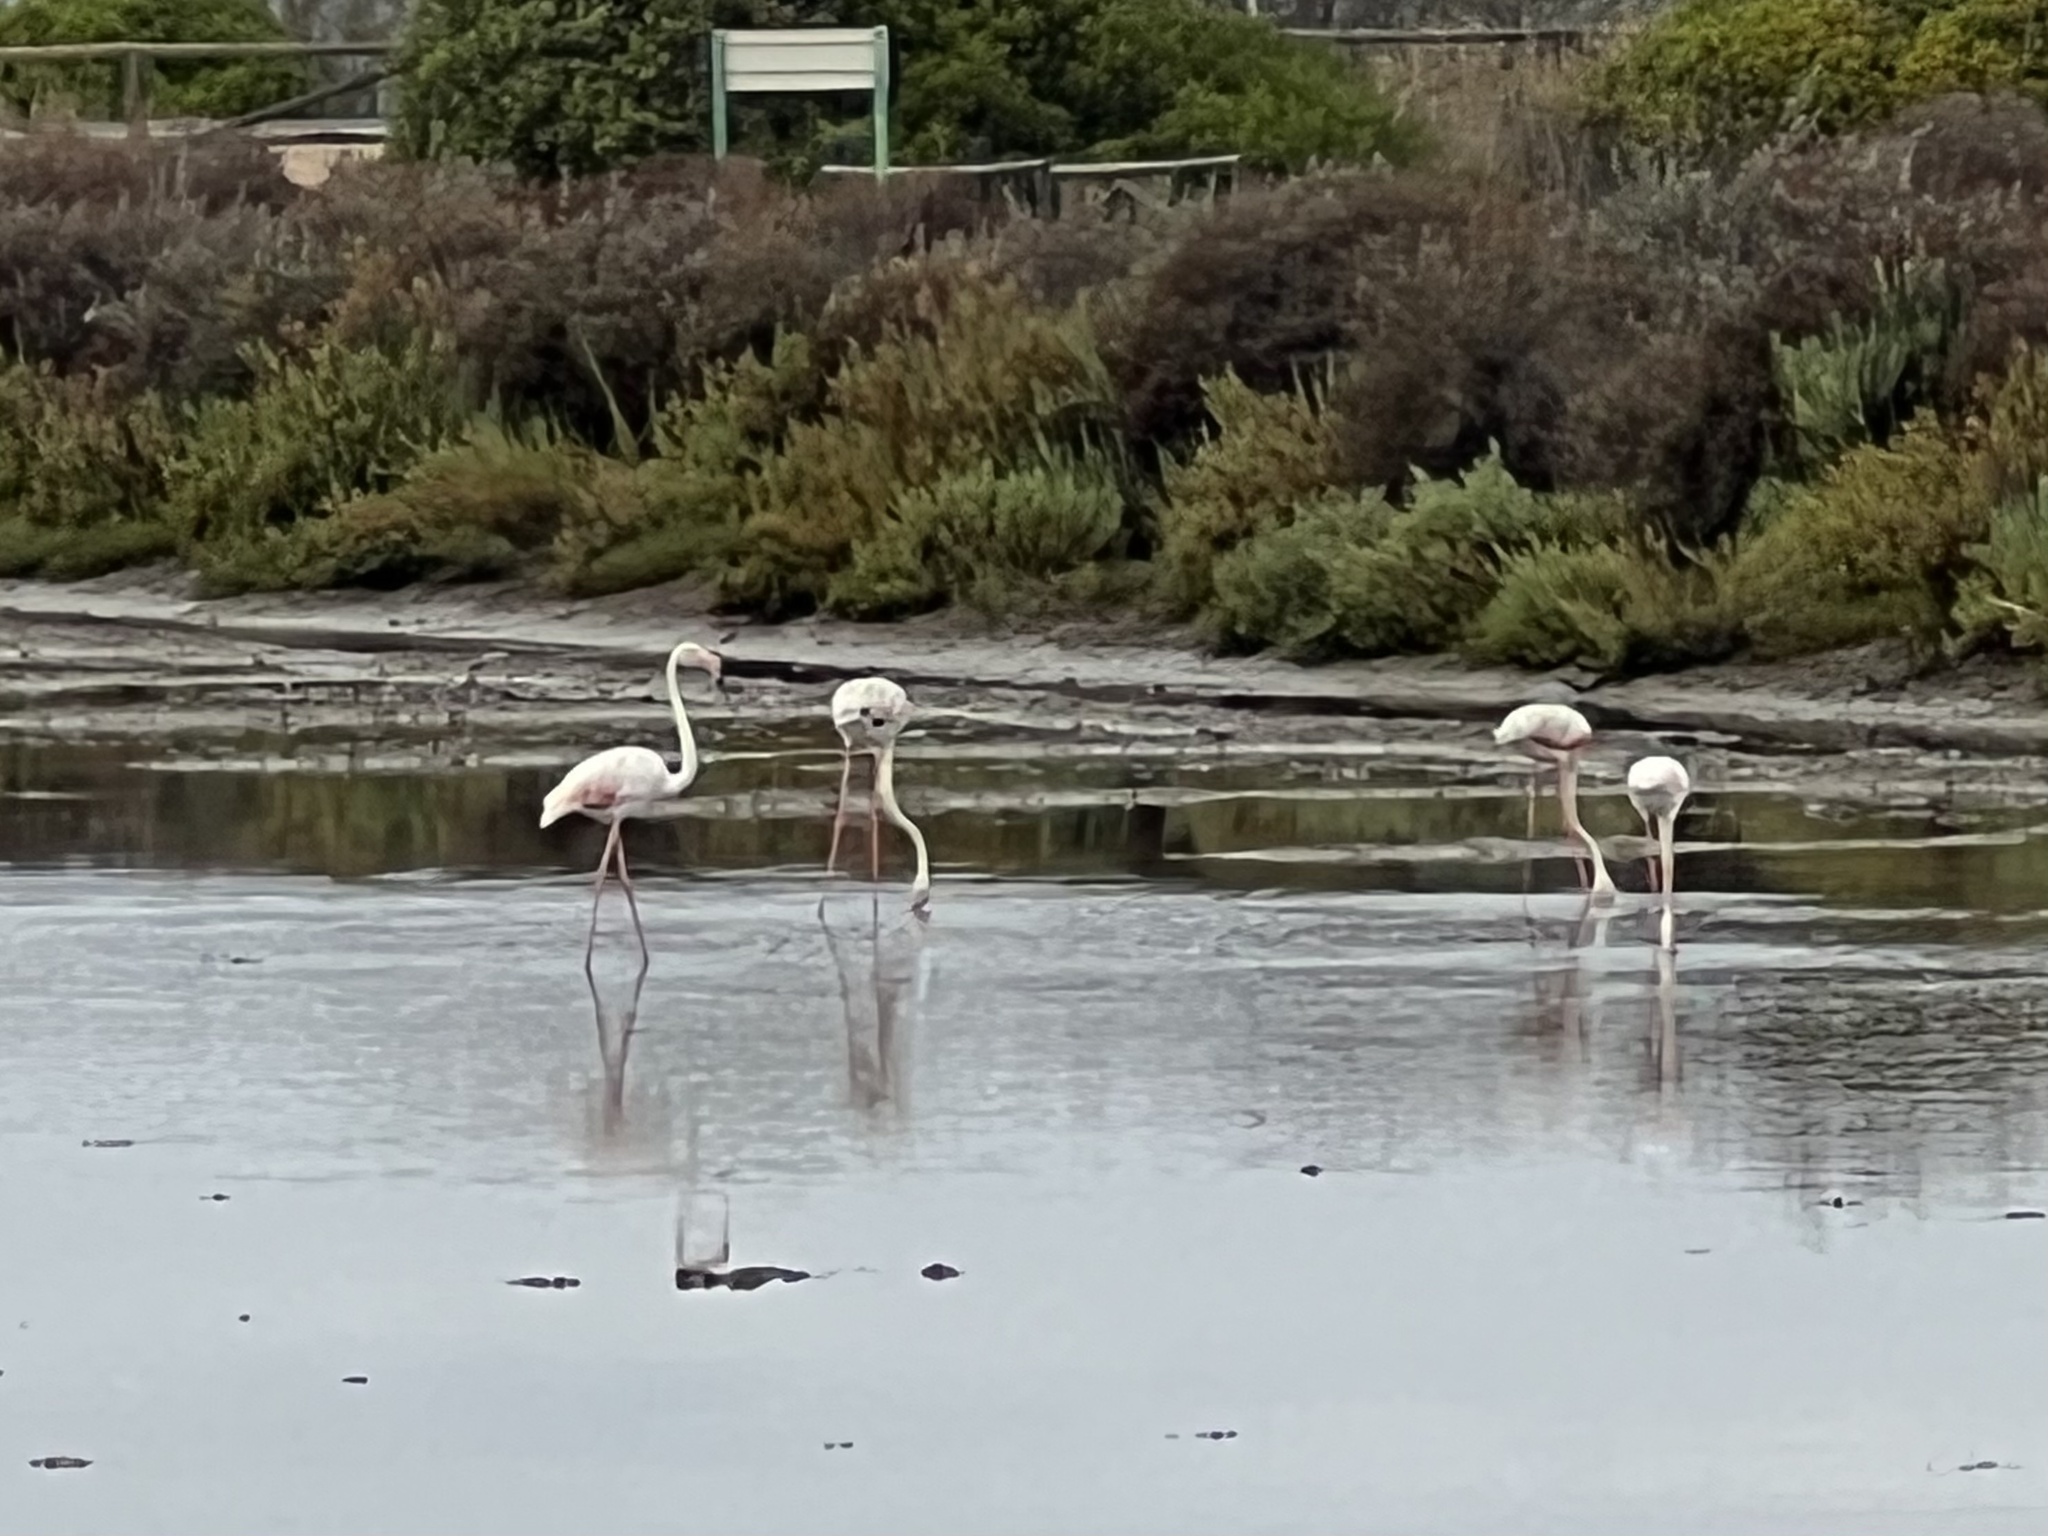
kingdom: Animalia
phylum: Chordata
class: Aves
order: Phoenicopteriformes
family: Phoenicopteridae
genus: Phoenicopterus
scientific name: Phoenicopterus roseus
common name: Greater flamingo
